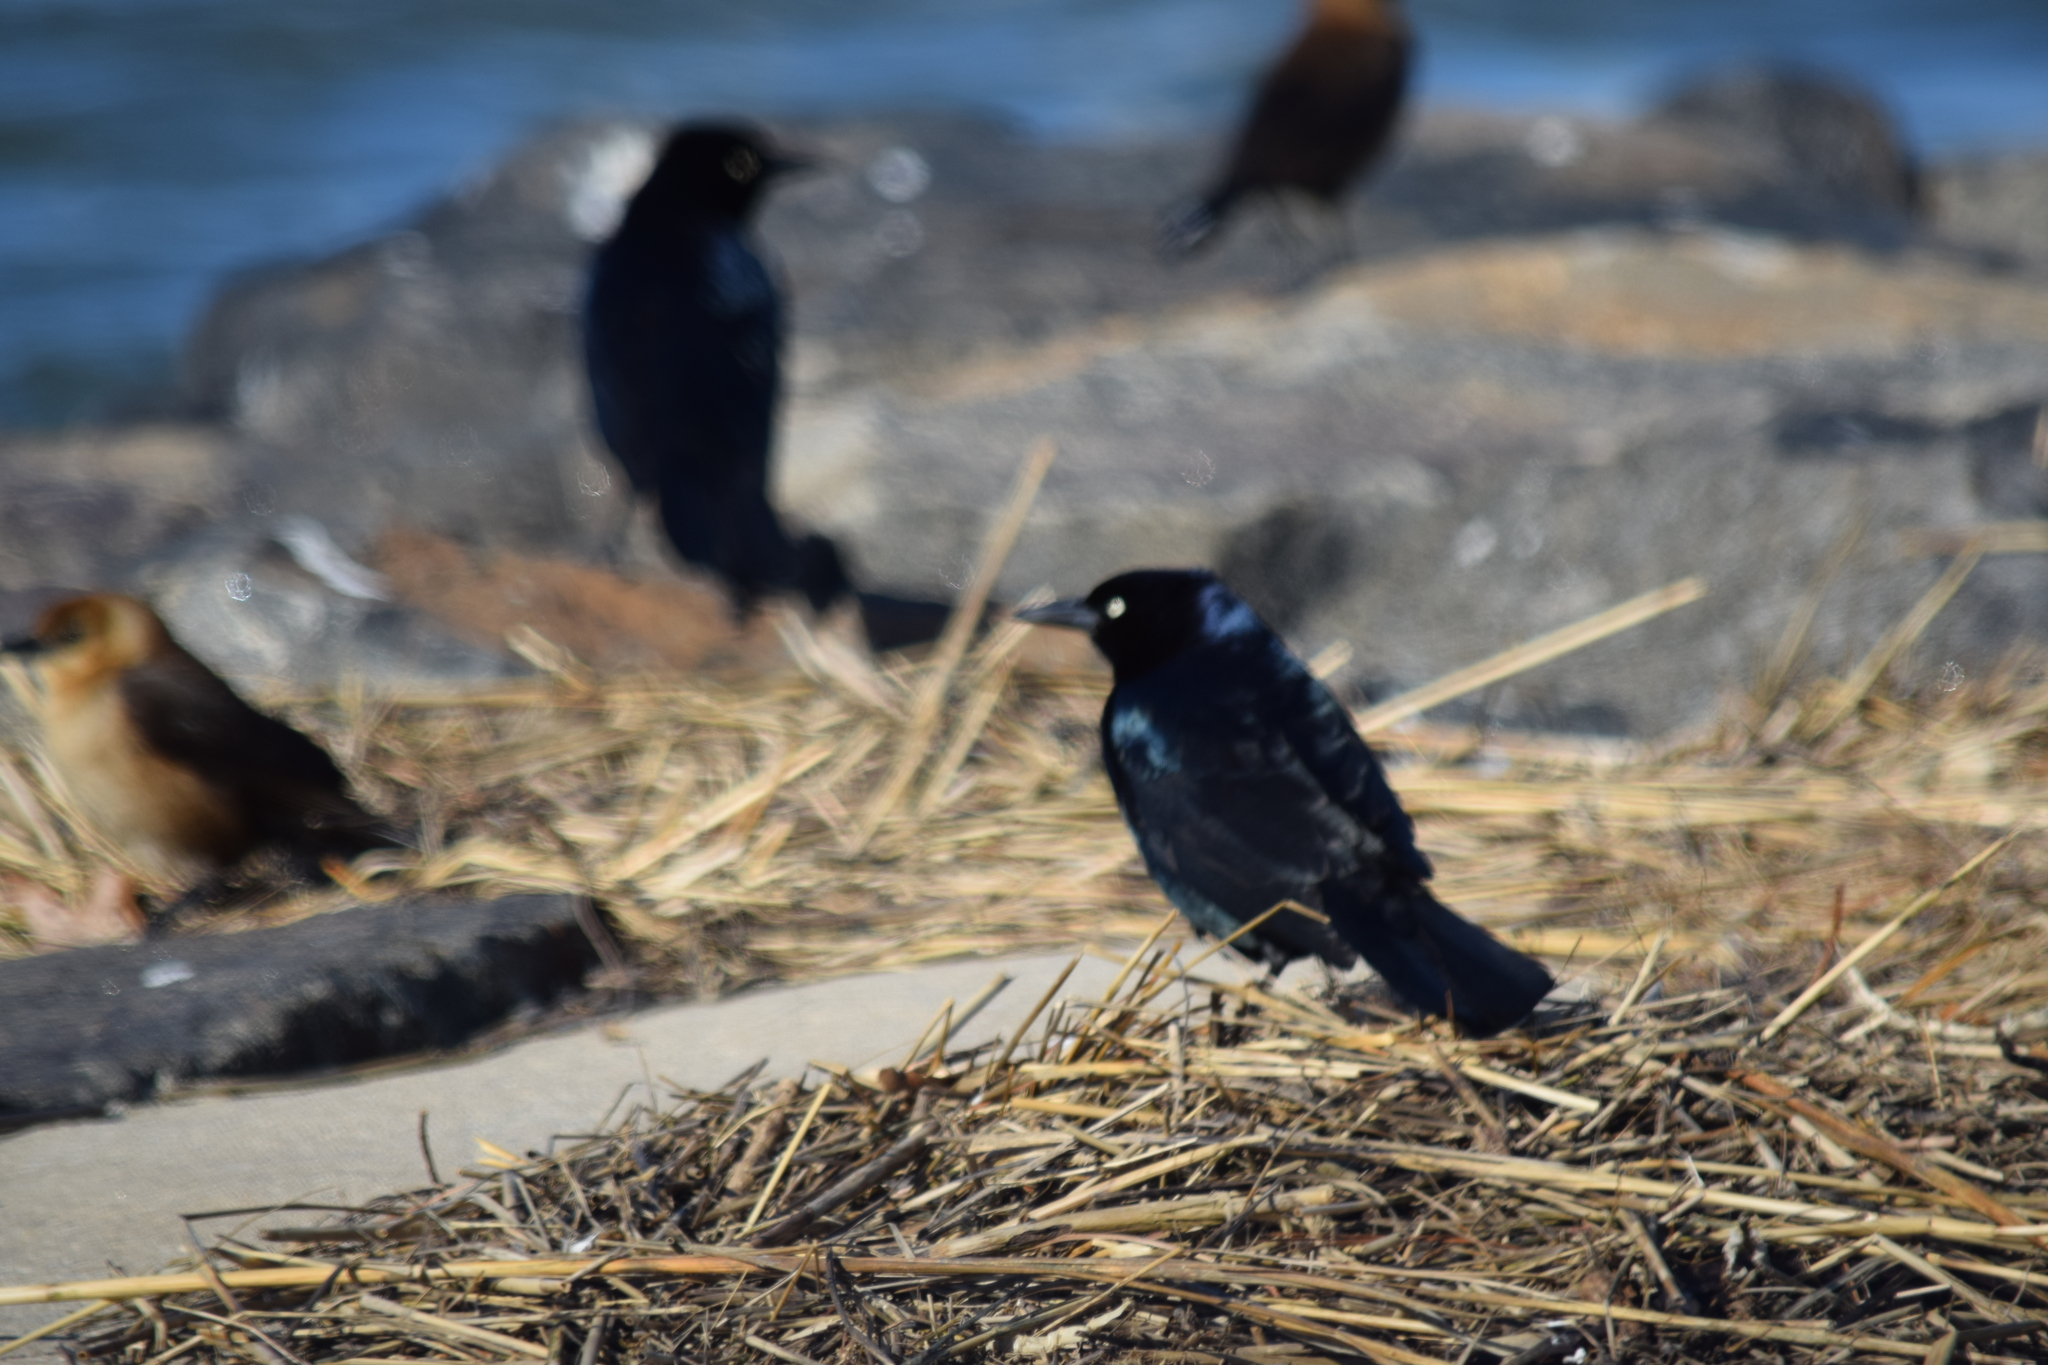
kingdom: Animalia
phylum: Chordata
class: Aves
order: Passeriformes
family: Icteridae
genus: Quiscalus
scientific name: Quiscalus major
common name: Boat-tailed grackle
